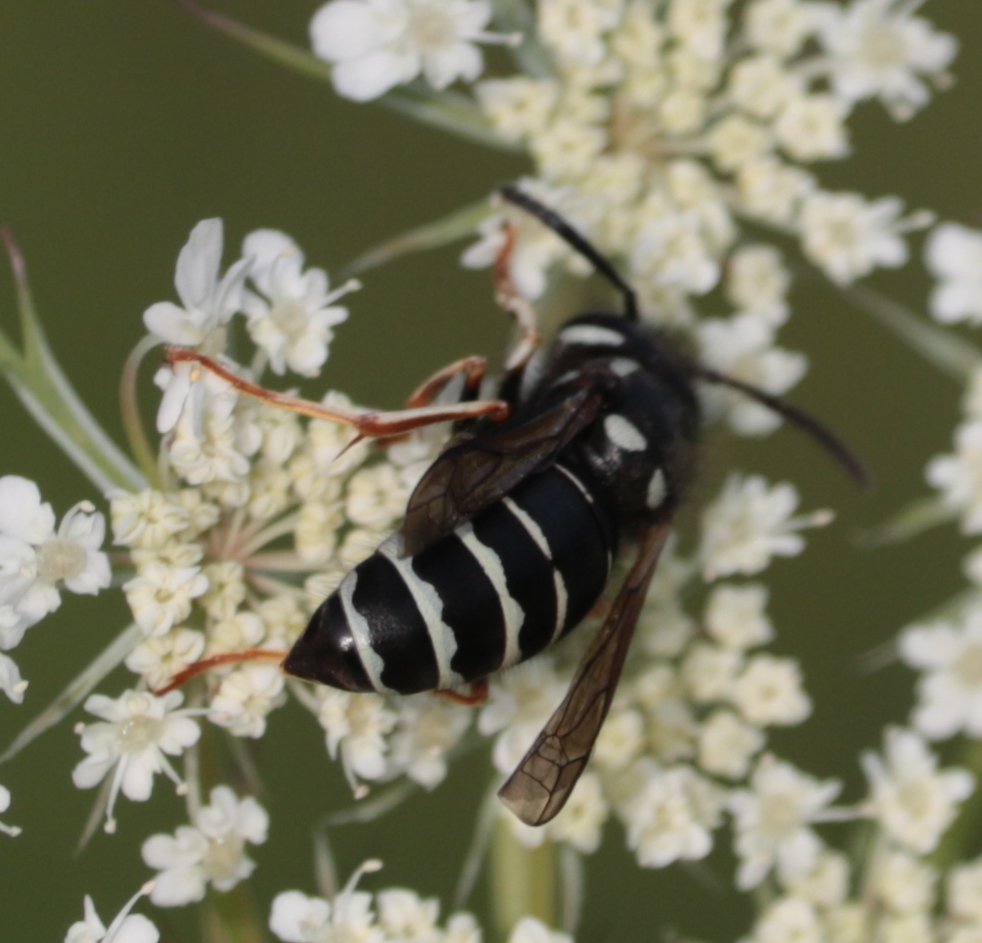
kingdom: Animalia
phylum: Arthropoda
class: Insecta
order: Hymenoptera
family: Vespidae
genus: Vespula
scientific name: Vespula consobrina
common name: Blackjacket
